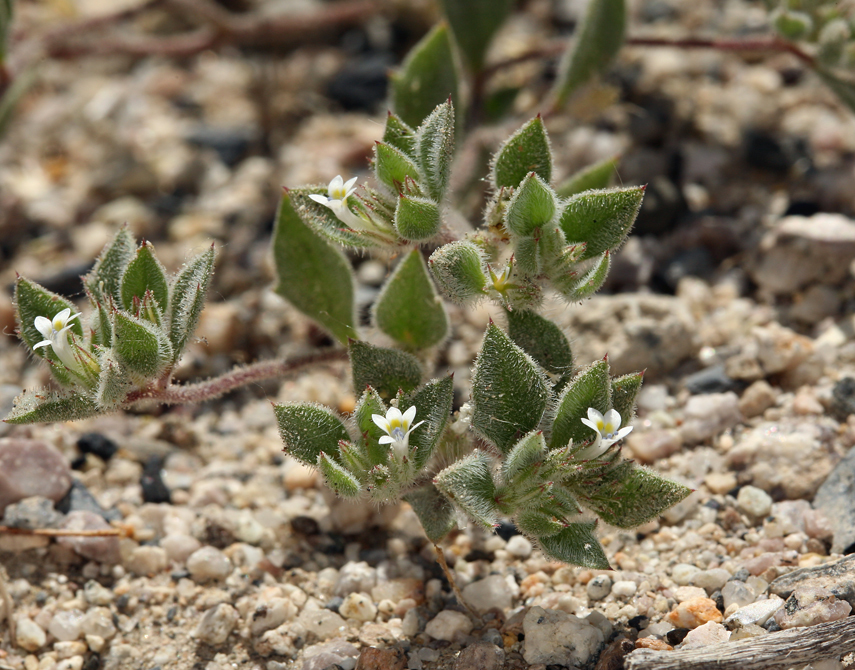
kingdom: Plantae
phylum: Tracheophyta
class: Magnoliopsida
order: Ericales
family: Polemoniaceae
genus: Loeseliastrum
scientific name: Loeseliastrum depressum
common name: Depressed ipomopsis
